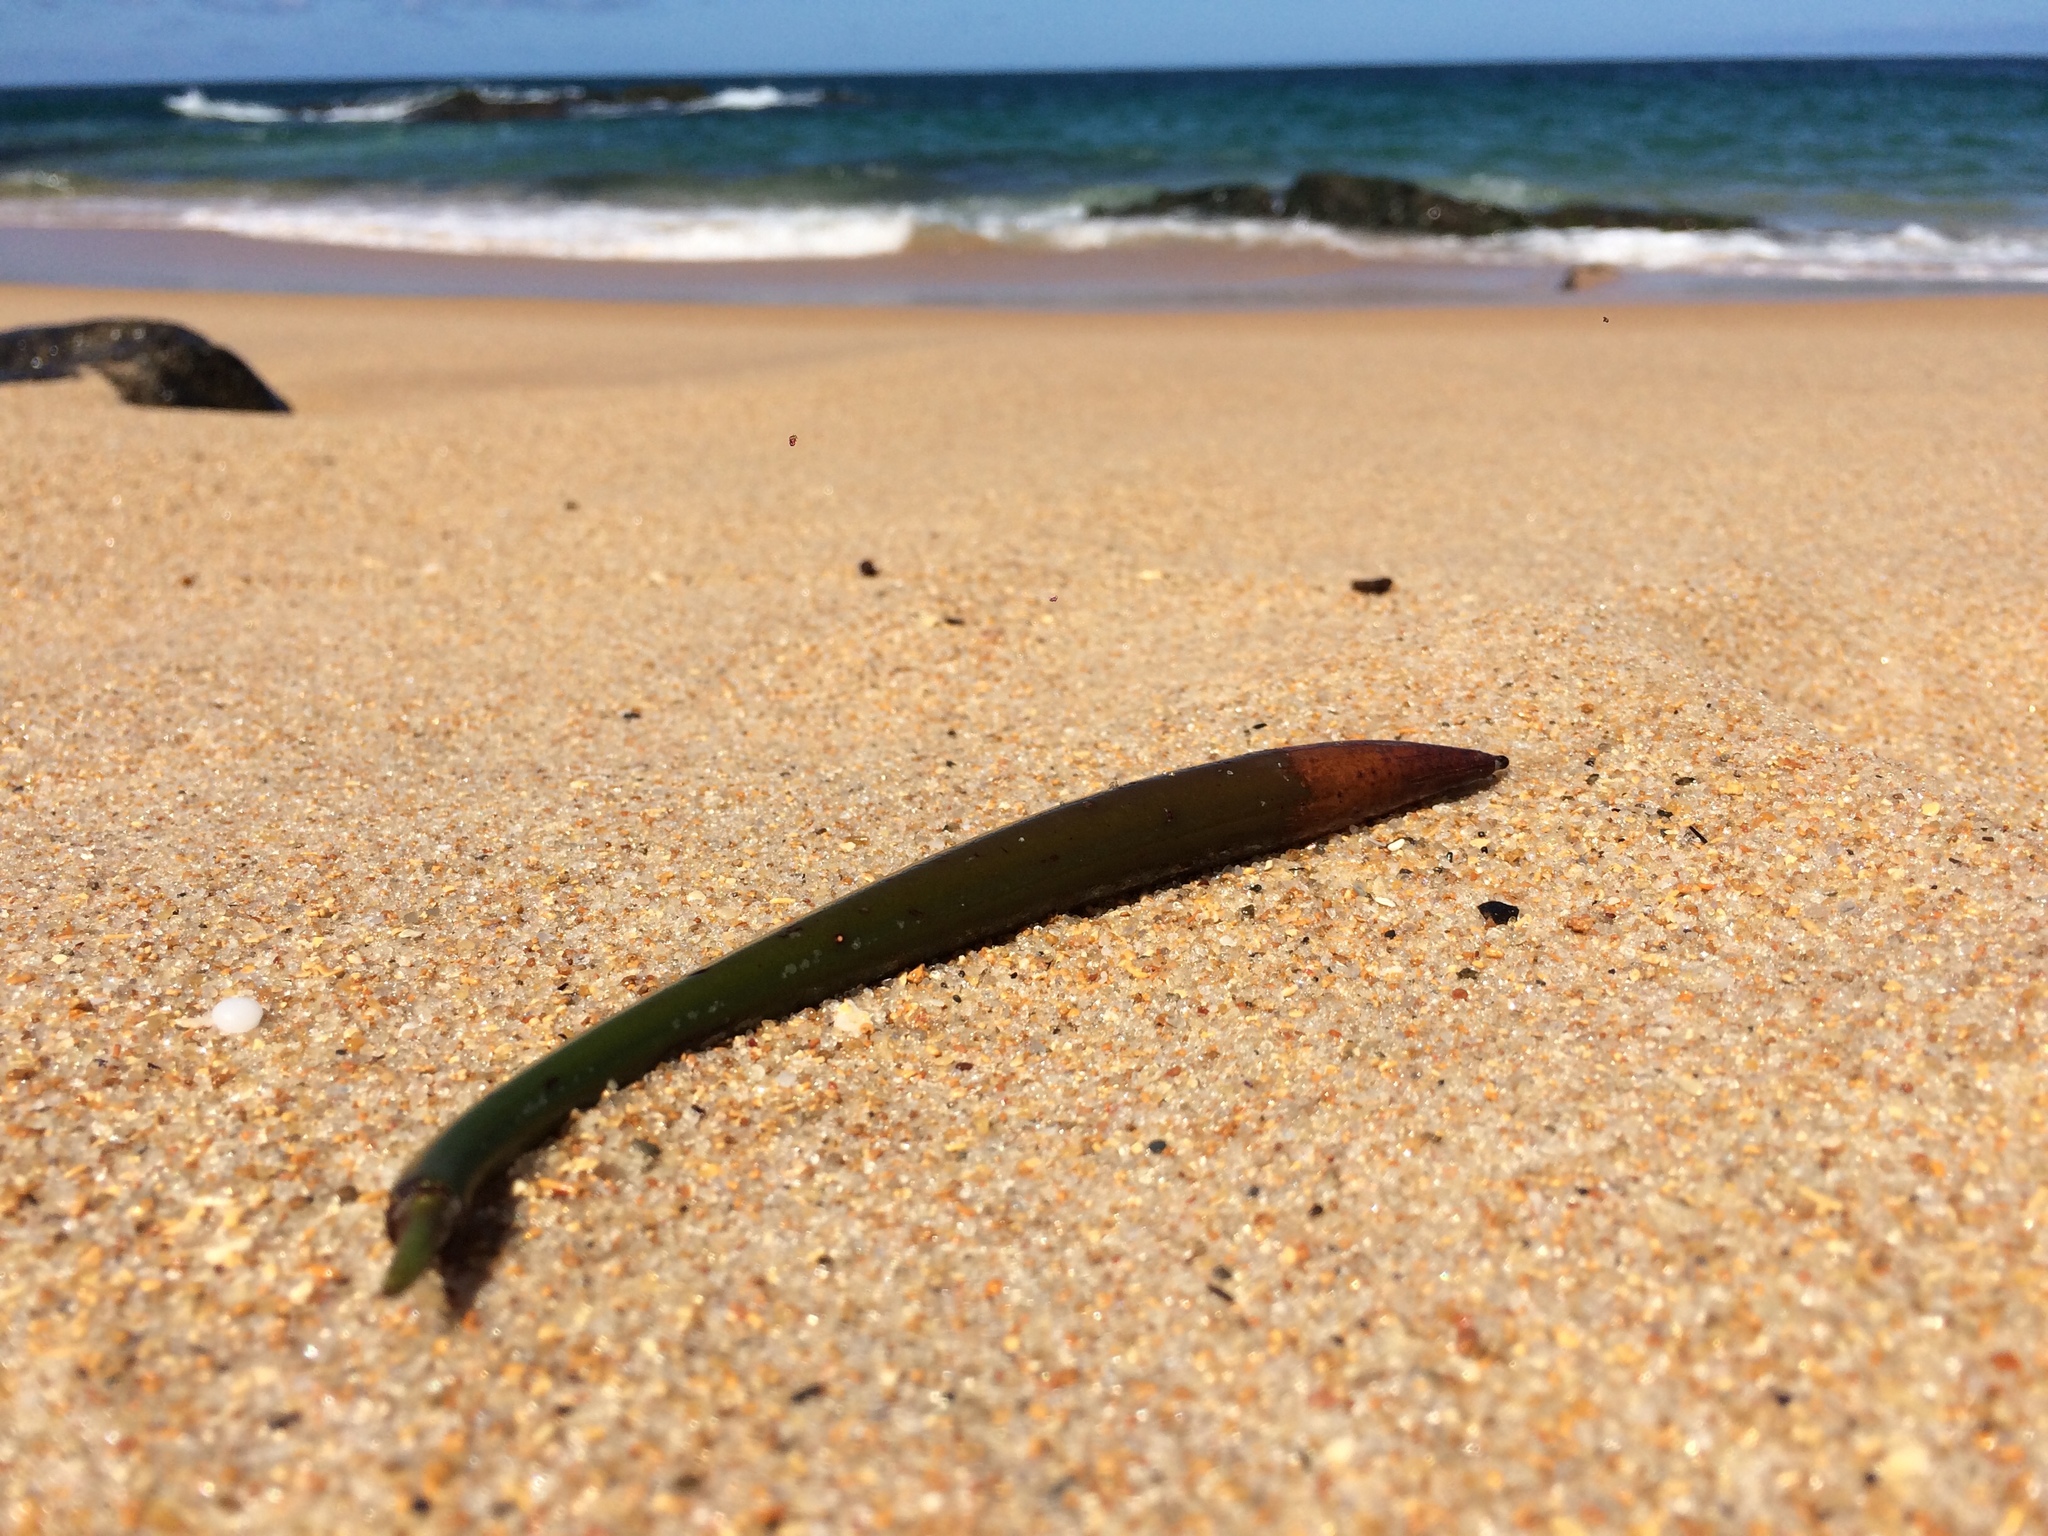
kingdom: Plantae
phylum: Tracheophyta
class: Magnoliopsida
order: Malpighiales
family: Rhizophoraceae
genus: Rhizophora
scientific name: Rhizophora mangle
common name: Red mangrove
